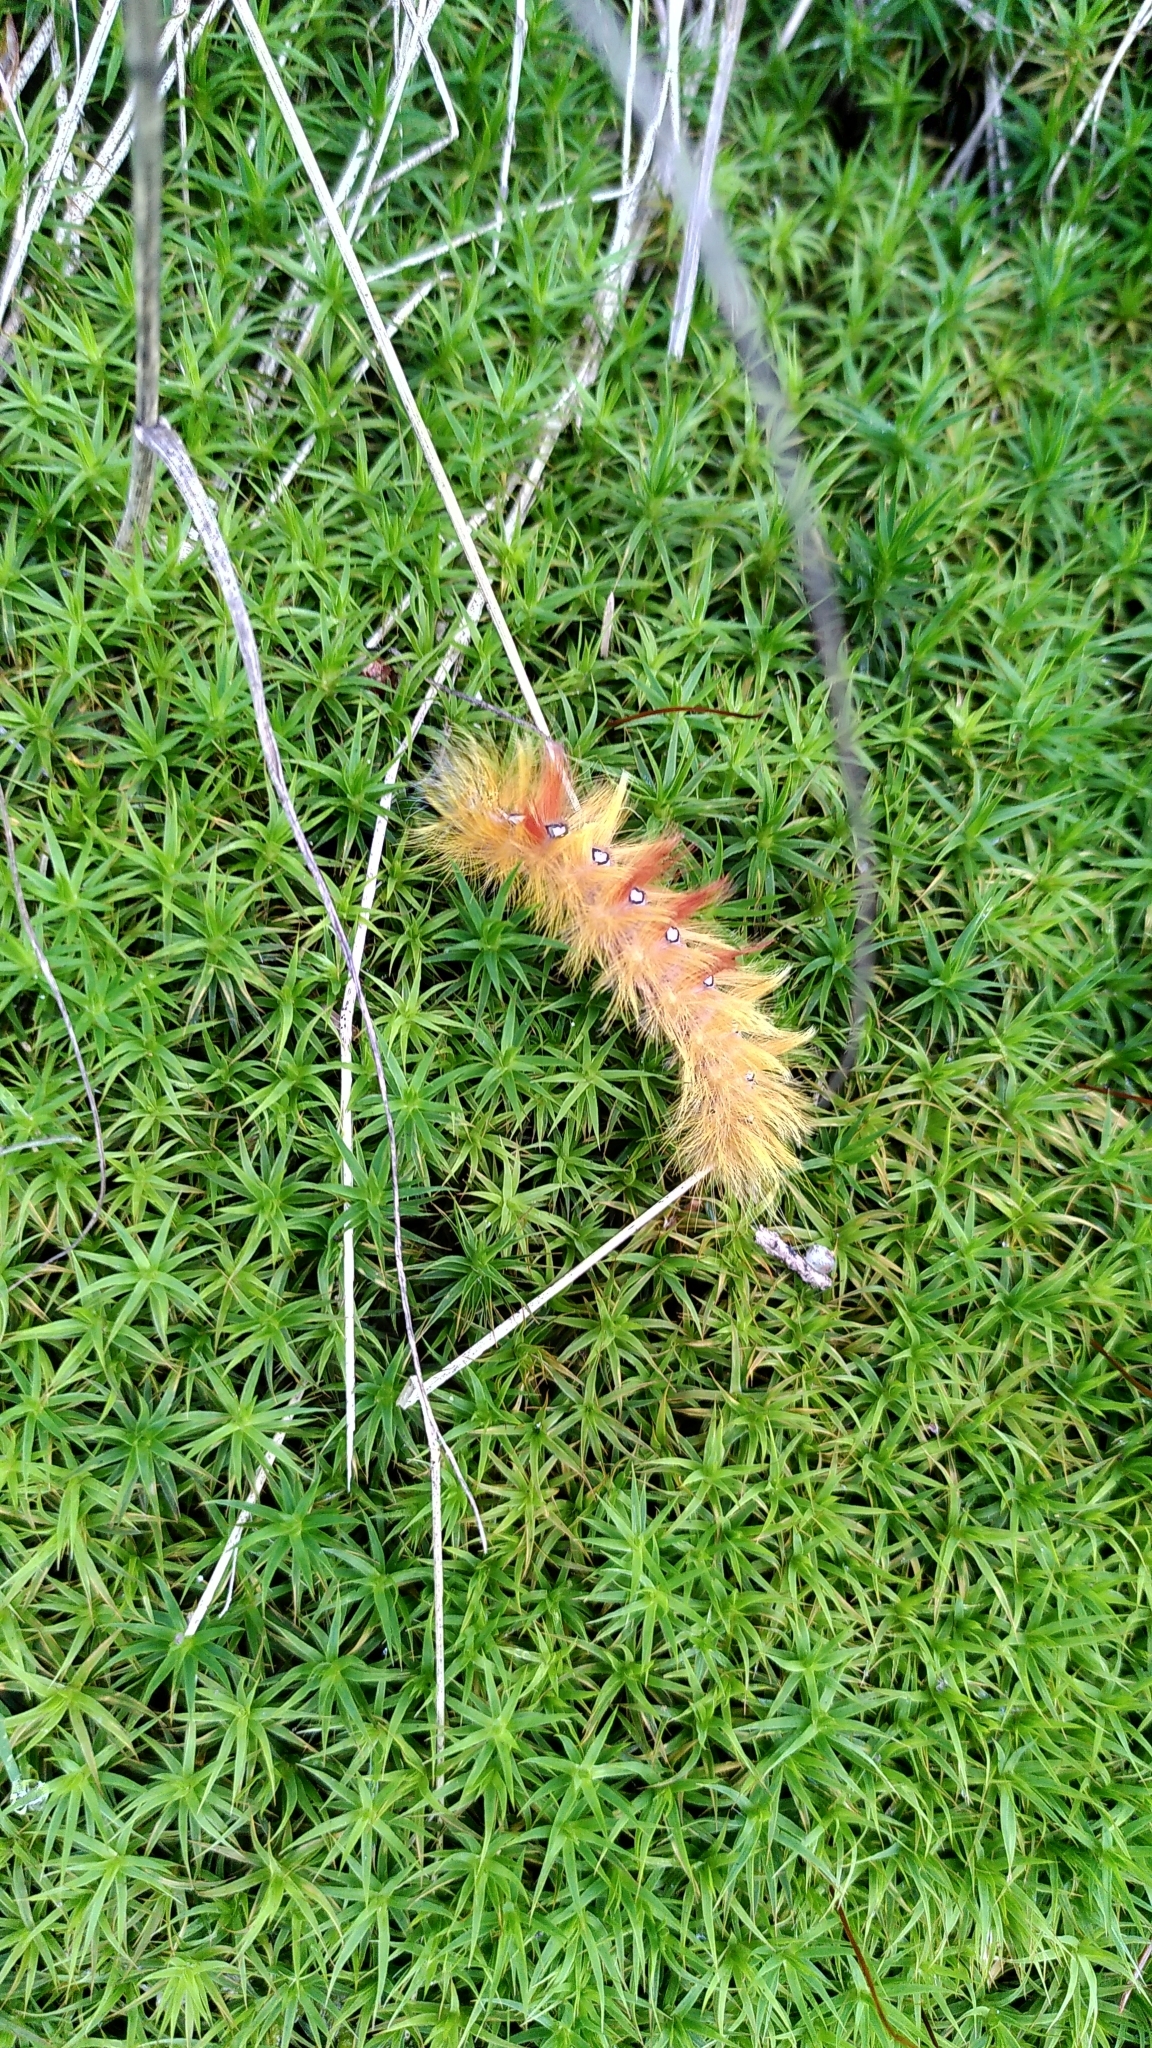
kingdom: Animalia
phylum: Arthropoda
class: Insecta
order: Lepidoptera
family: Noctuidae
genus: Acronicta
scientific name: Acronicta aceris
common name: Sycamore
